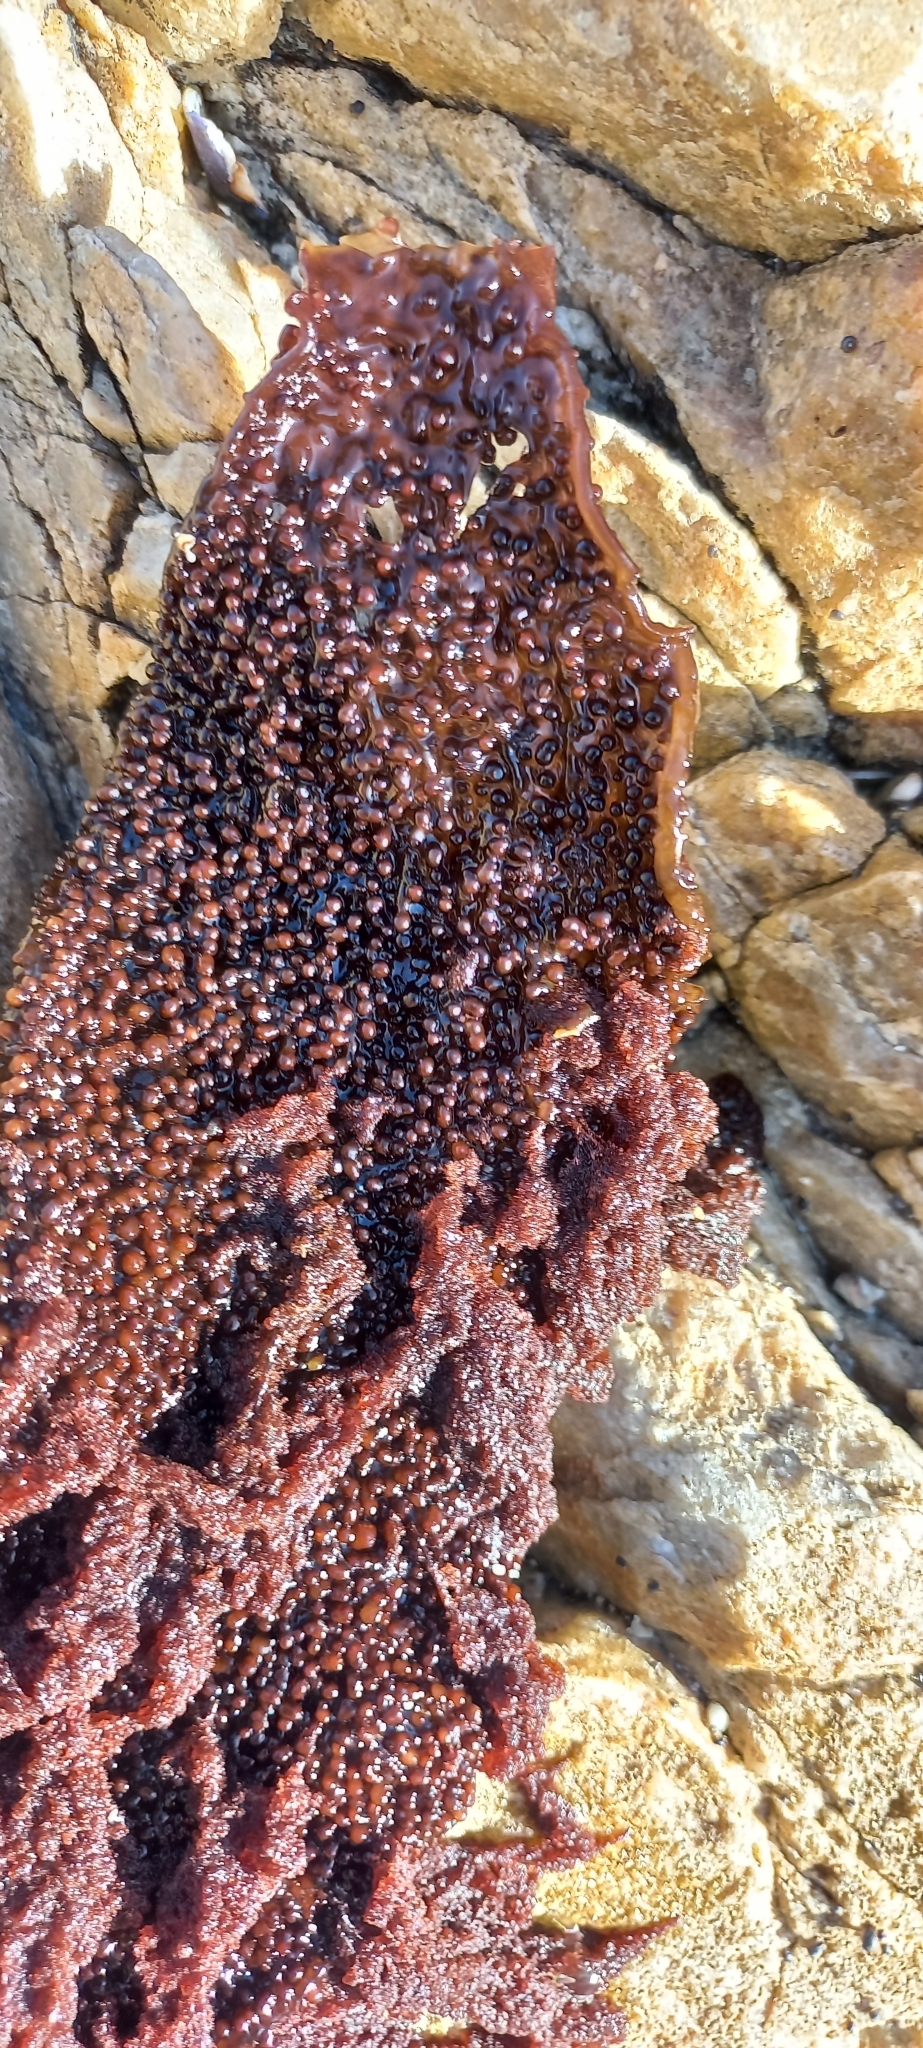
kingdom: Plantae
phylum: Rhodophyta
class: Florideophyceae
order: Gigartinales
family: Gigartinaceae
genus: Gigartina
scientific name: Gigartina
